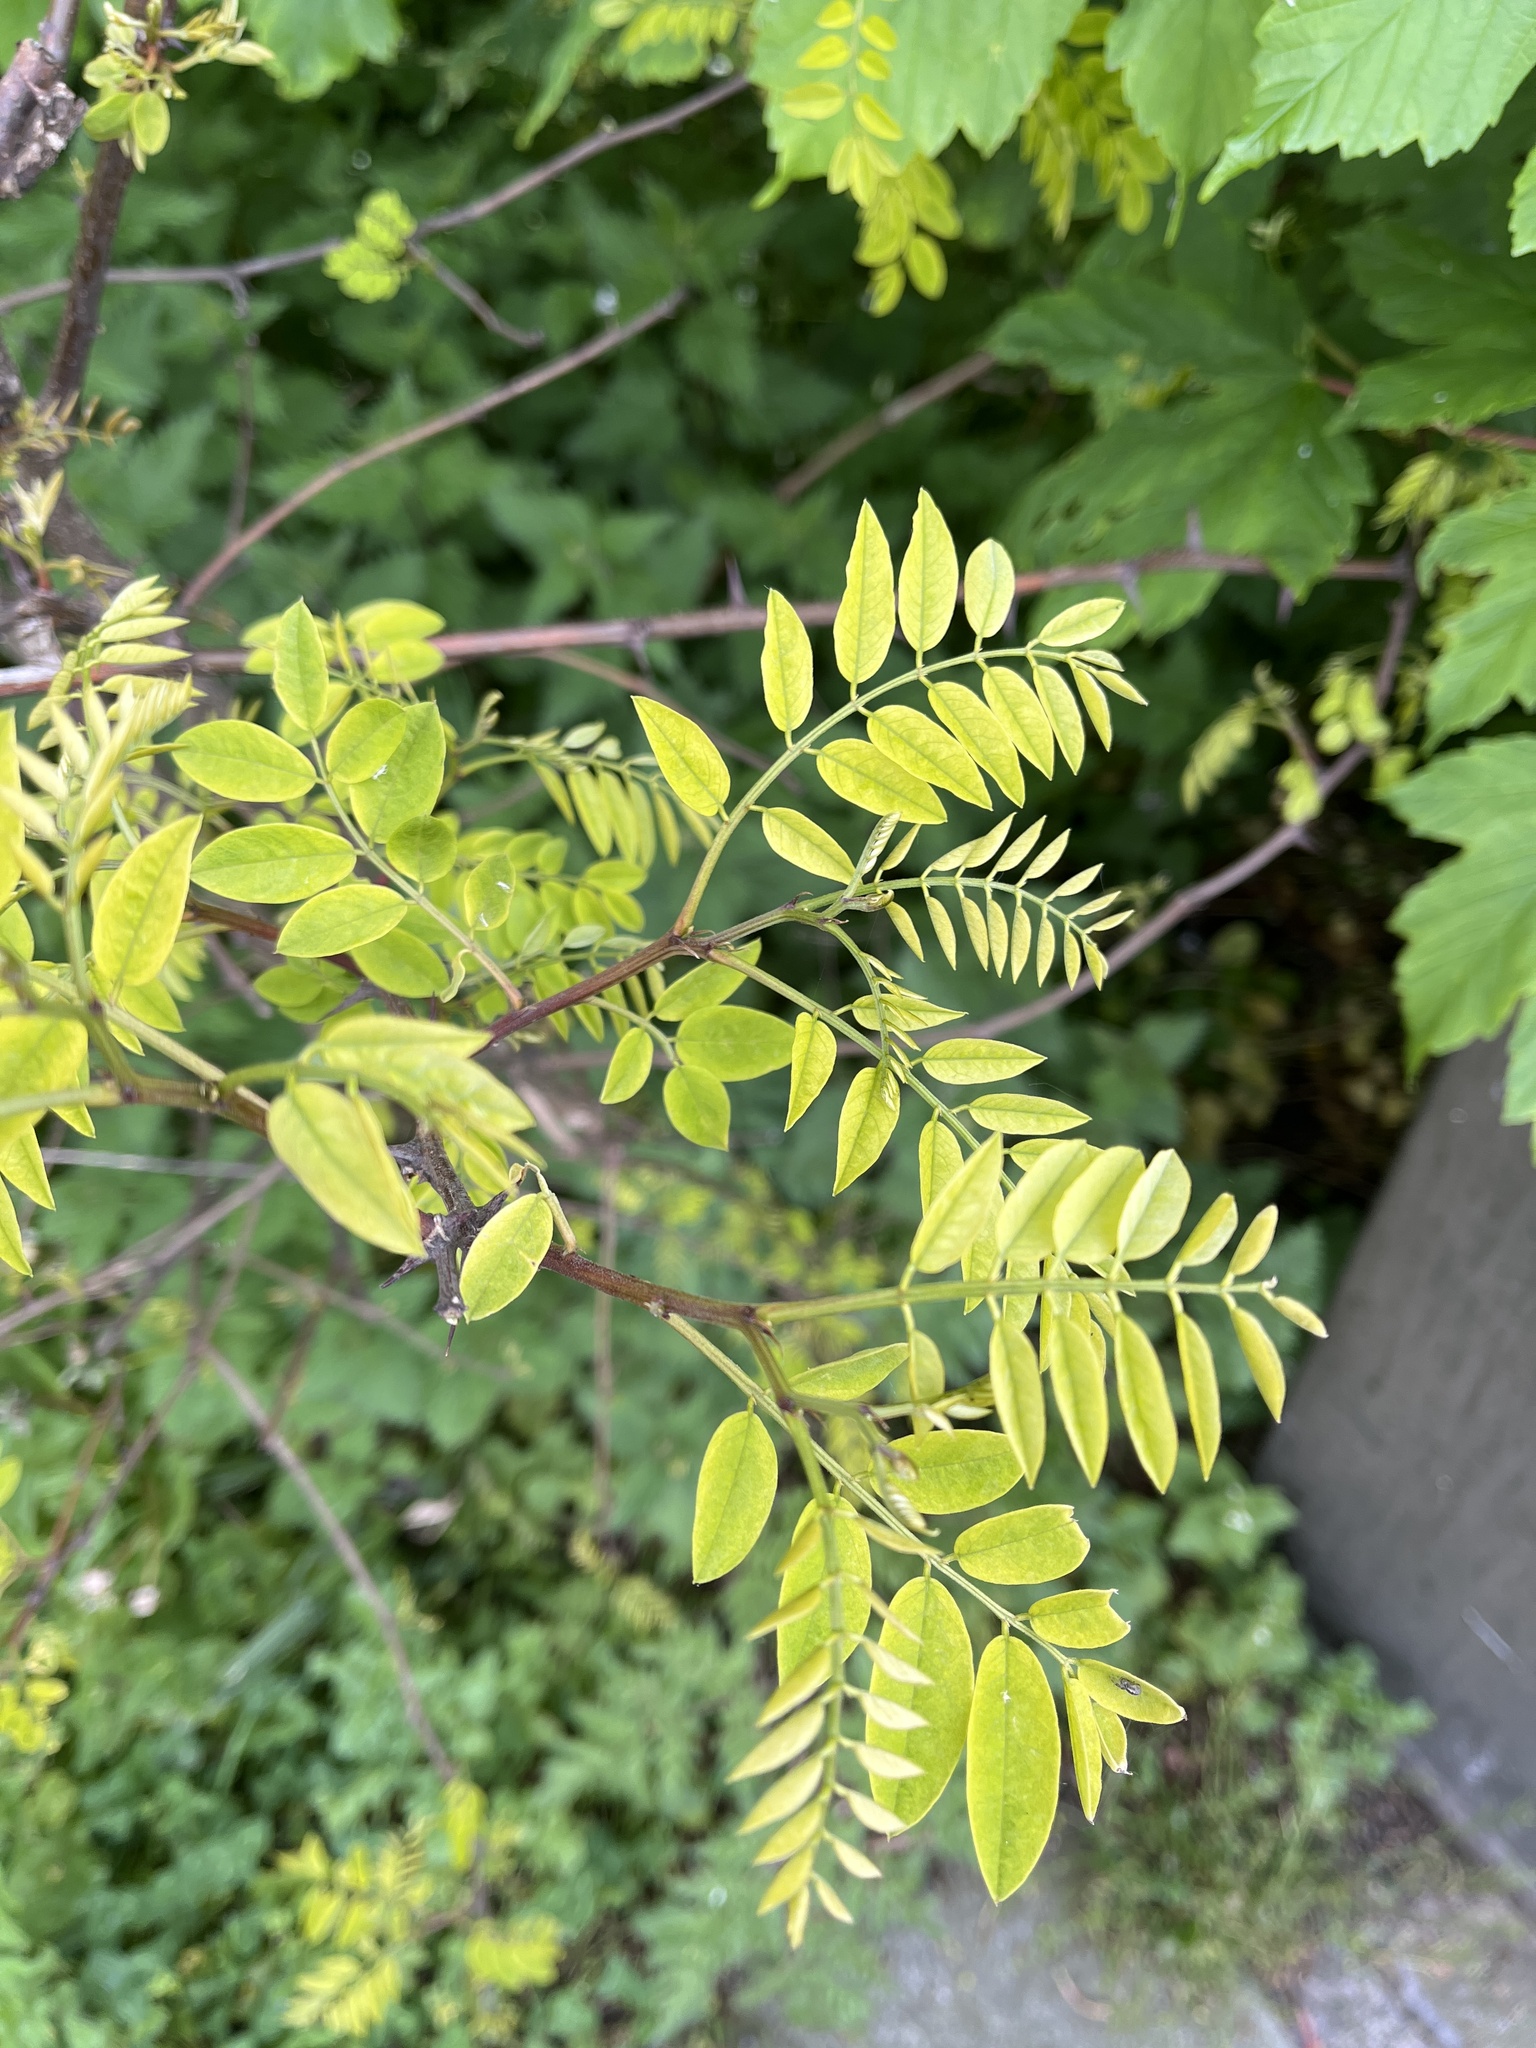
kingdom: Plantae
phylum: Tracheophyta
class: Magnoliopsida
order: Fabales
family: Fabaceae
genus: Robinia
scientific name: Robinia pseudoacacia
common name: Black locust
